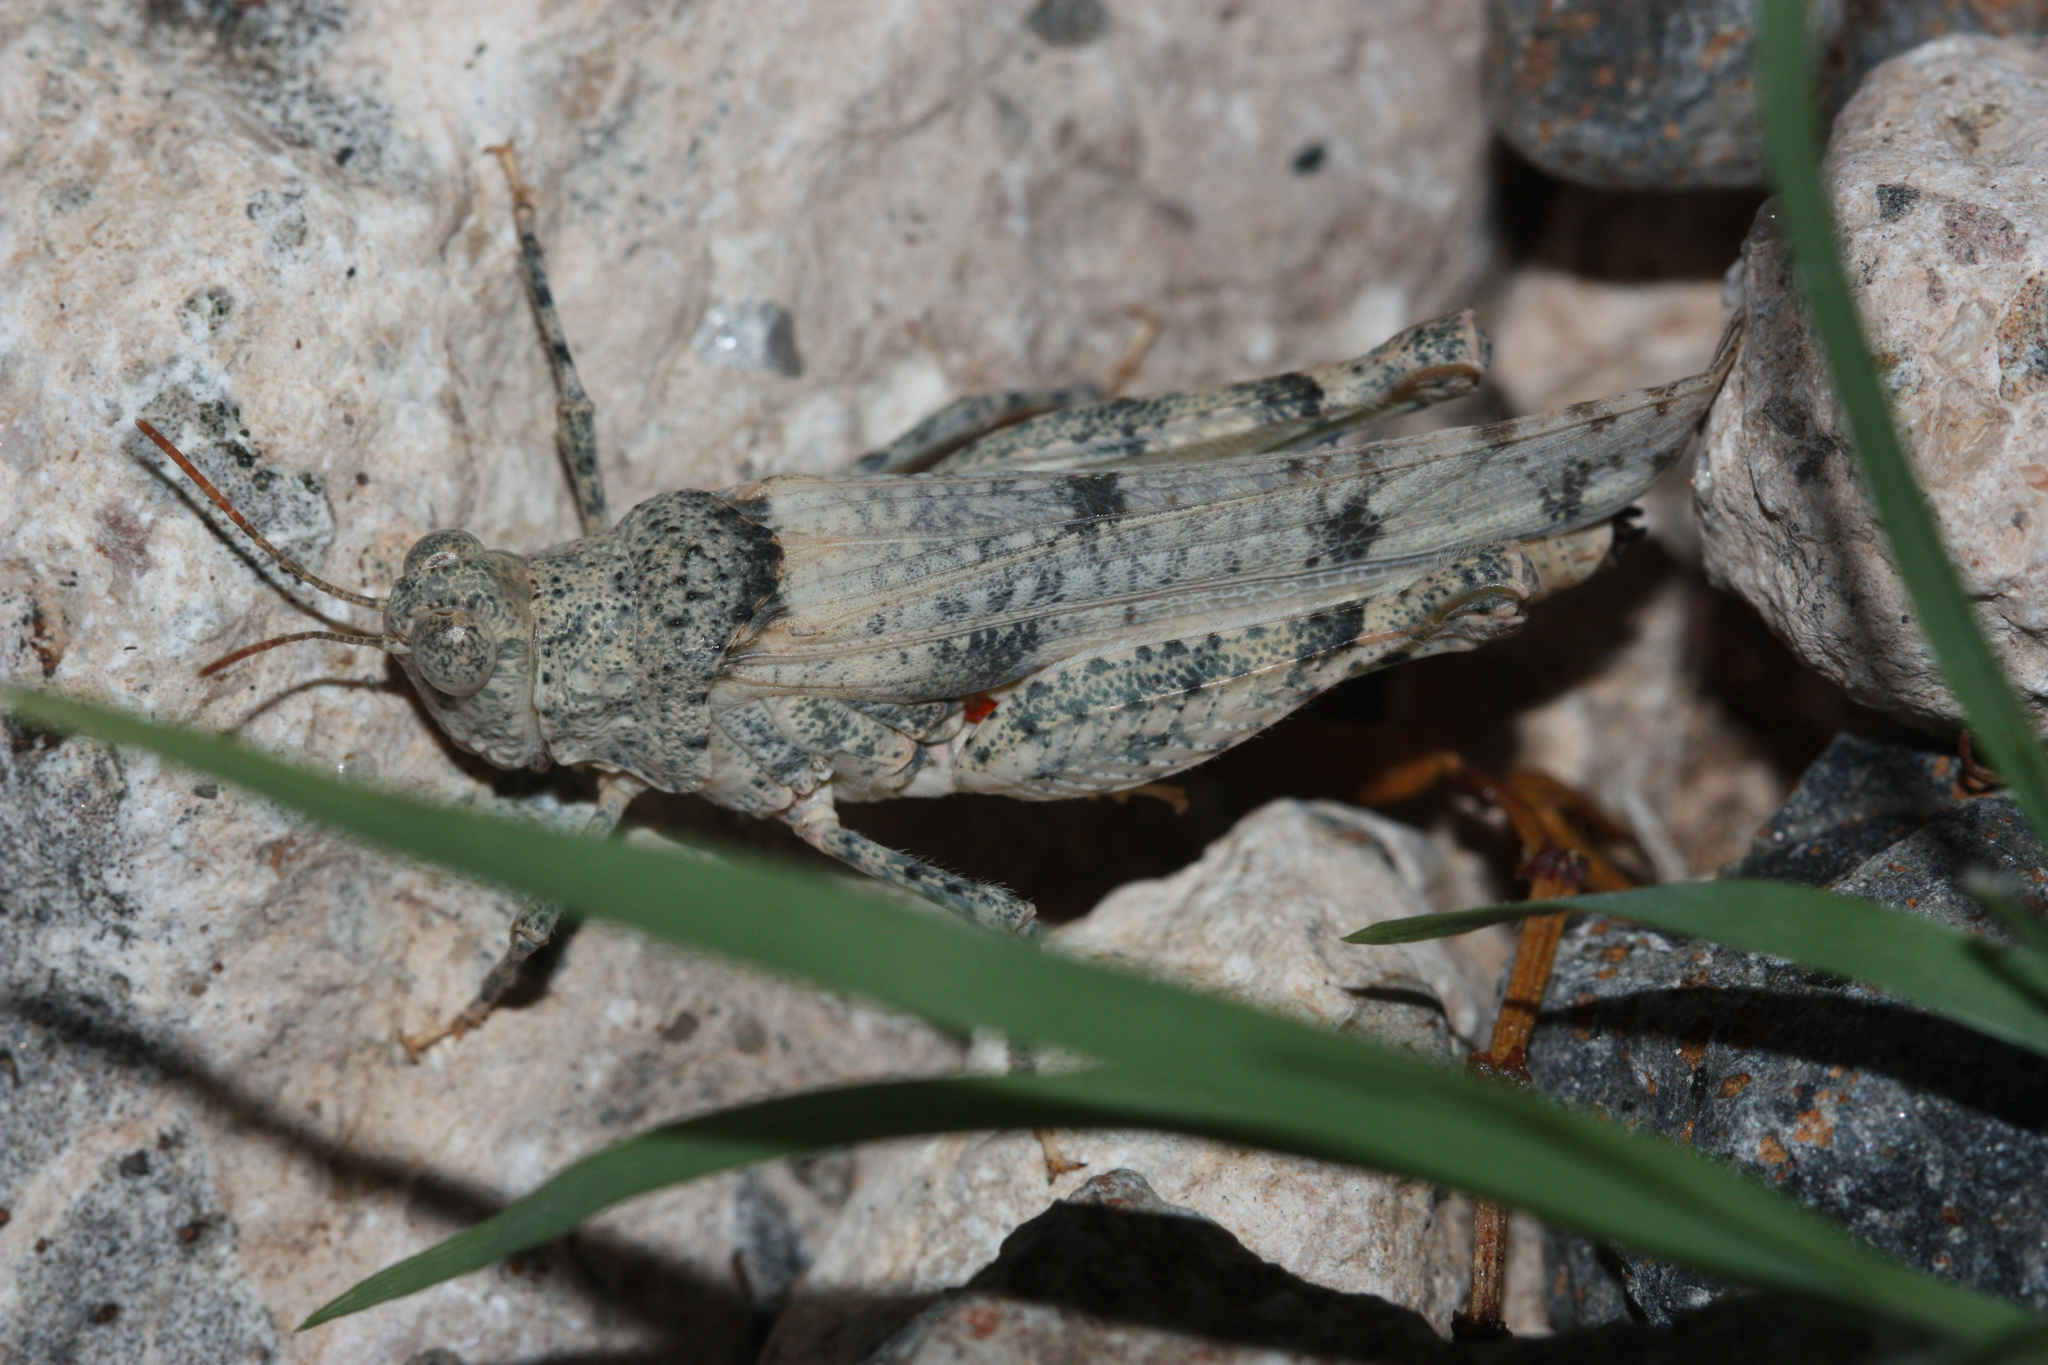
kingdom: Animalia
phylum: Arthropoda
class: Insecta
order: Orthoptera
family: Acrididae
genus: Cibolacris
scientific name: Cibolacris parviceps
